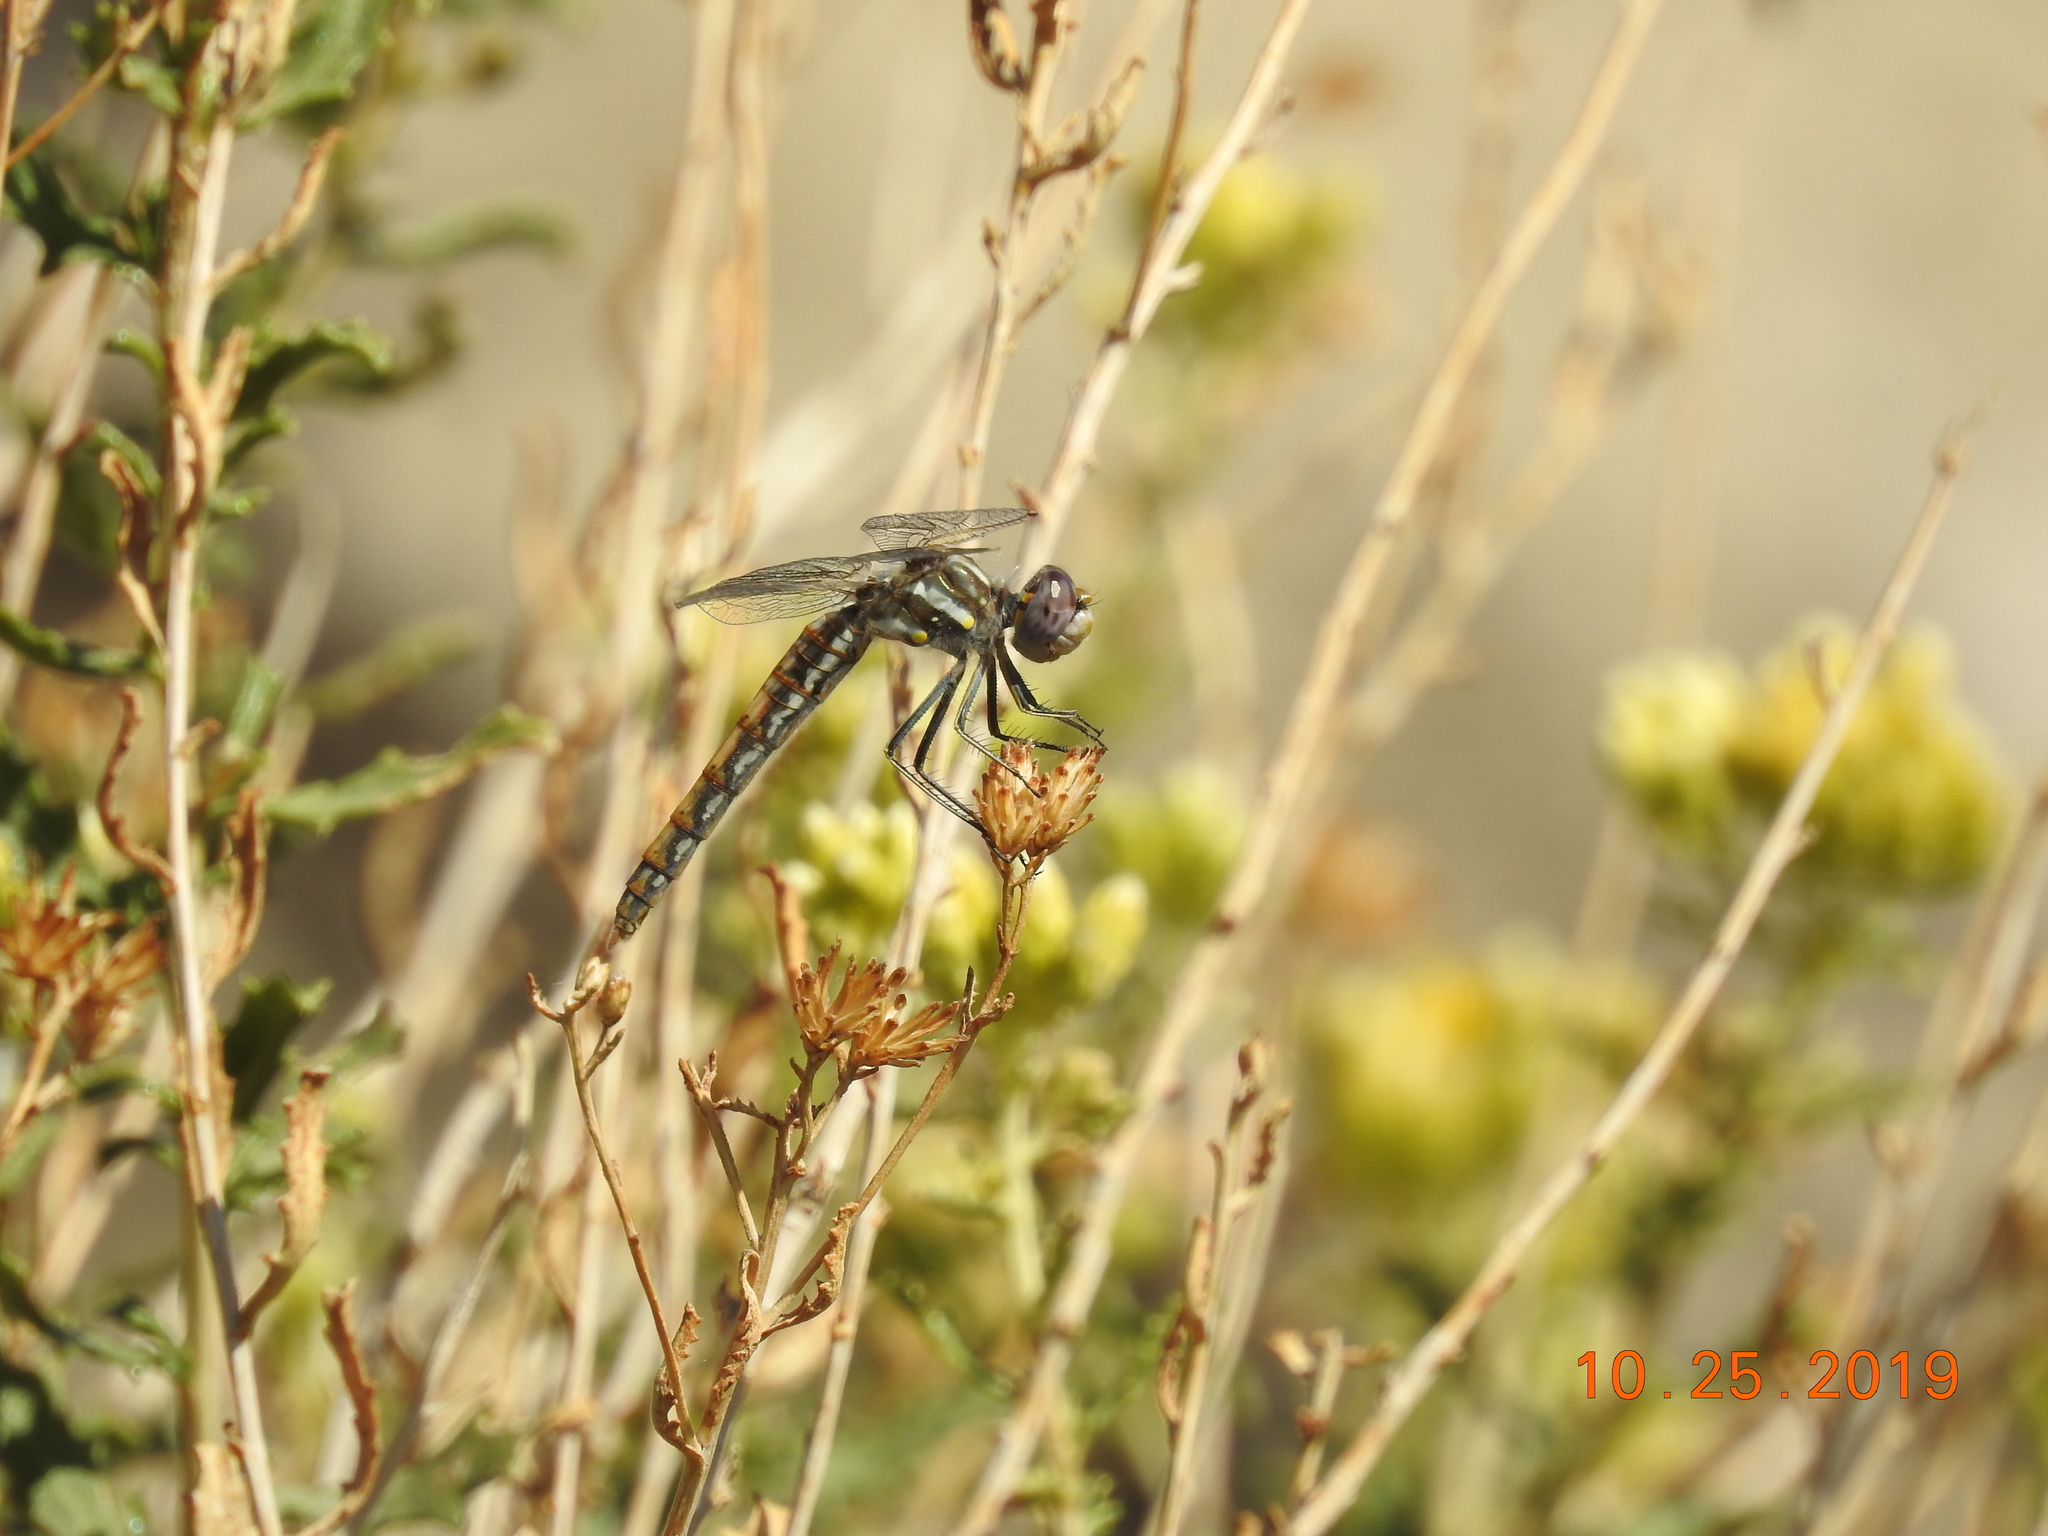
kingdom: Animalia
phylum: Arthropoda
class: Insecta
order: Odonata
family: Libellulidae
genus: Sympetrum
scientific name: Sympetrum corruptum
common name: Variegated meadowhawk
